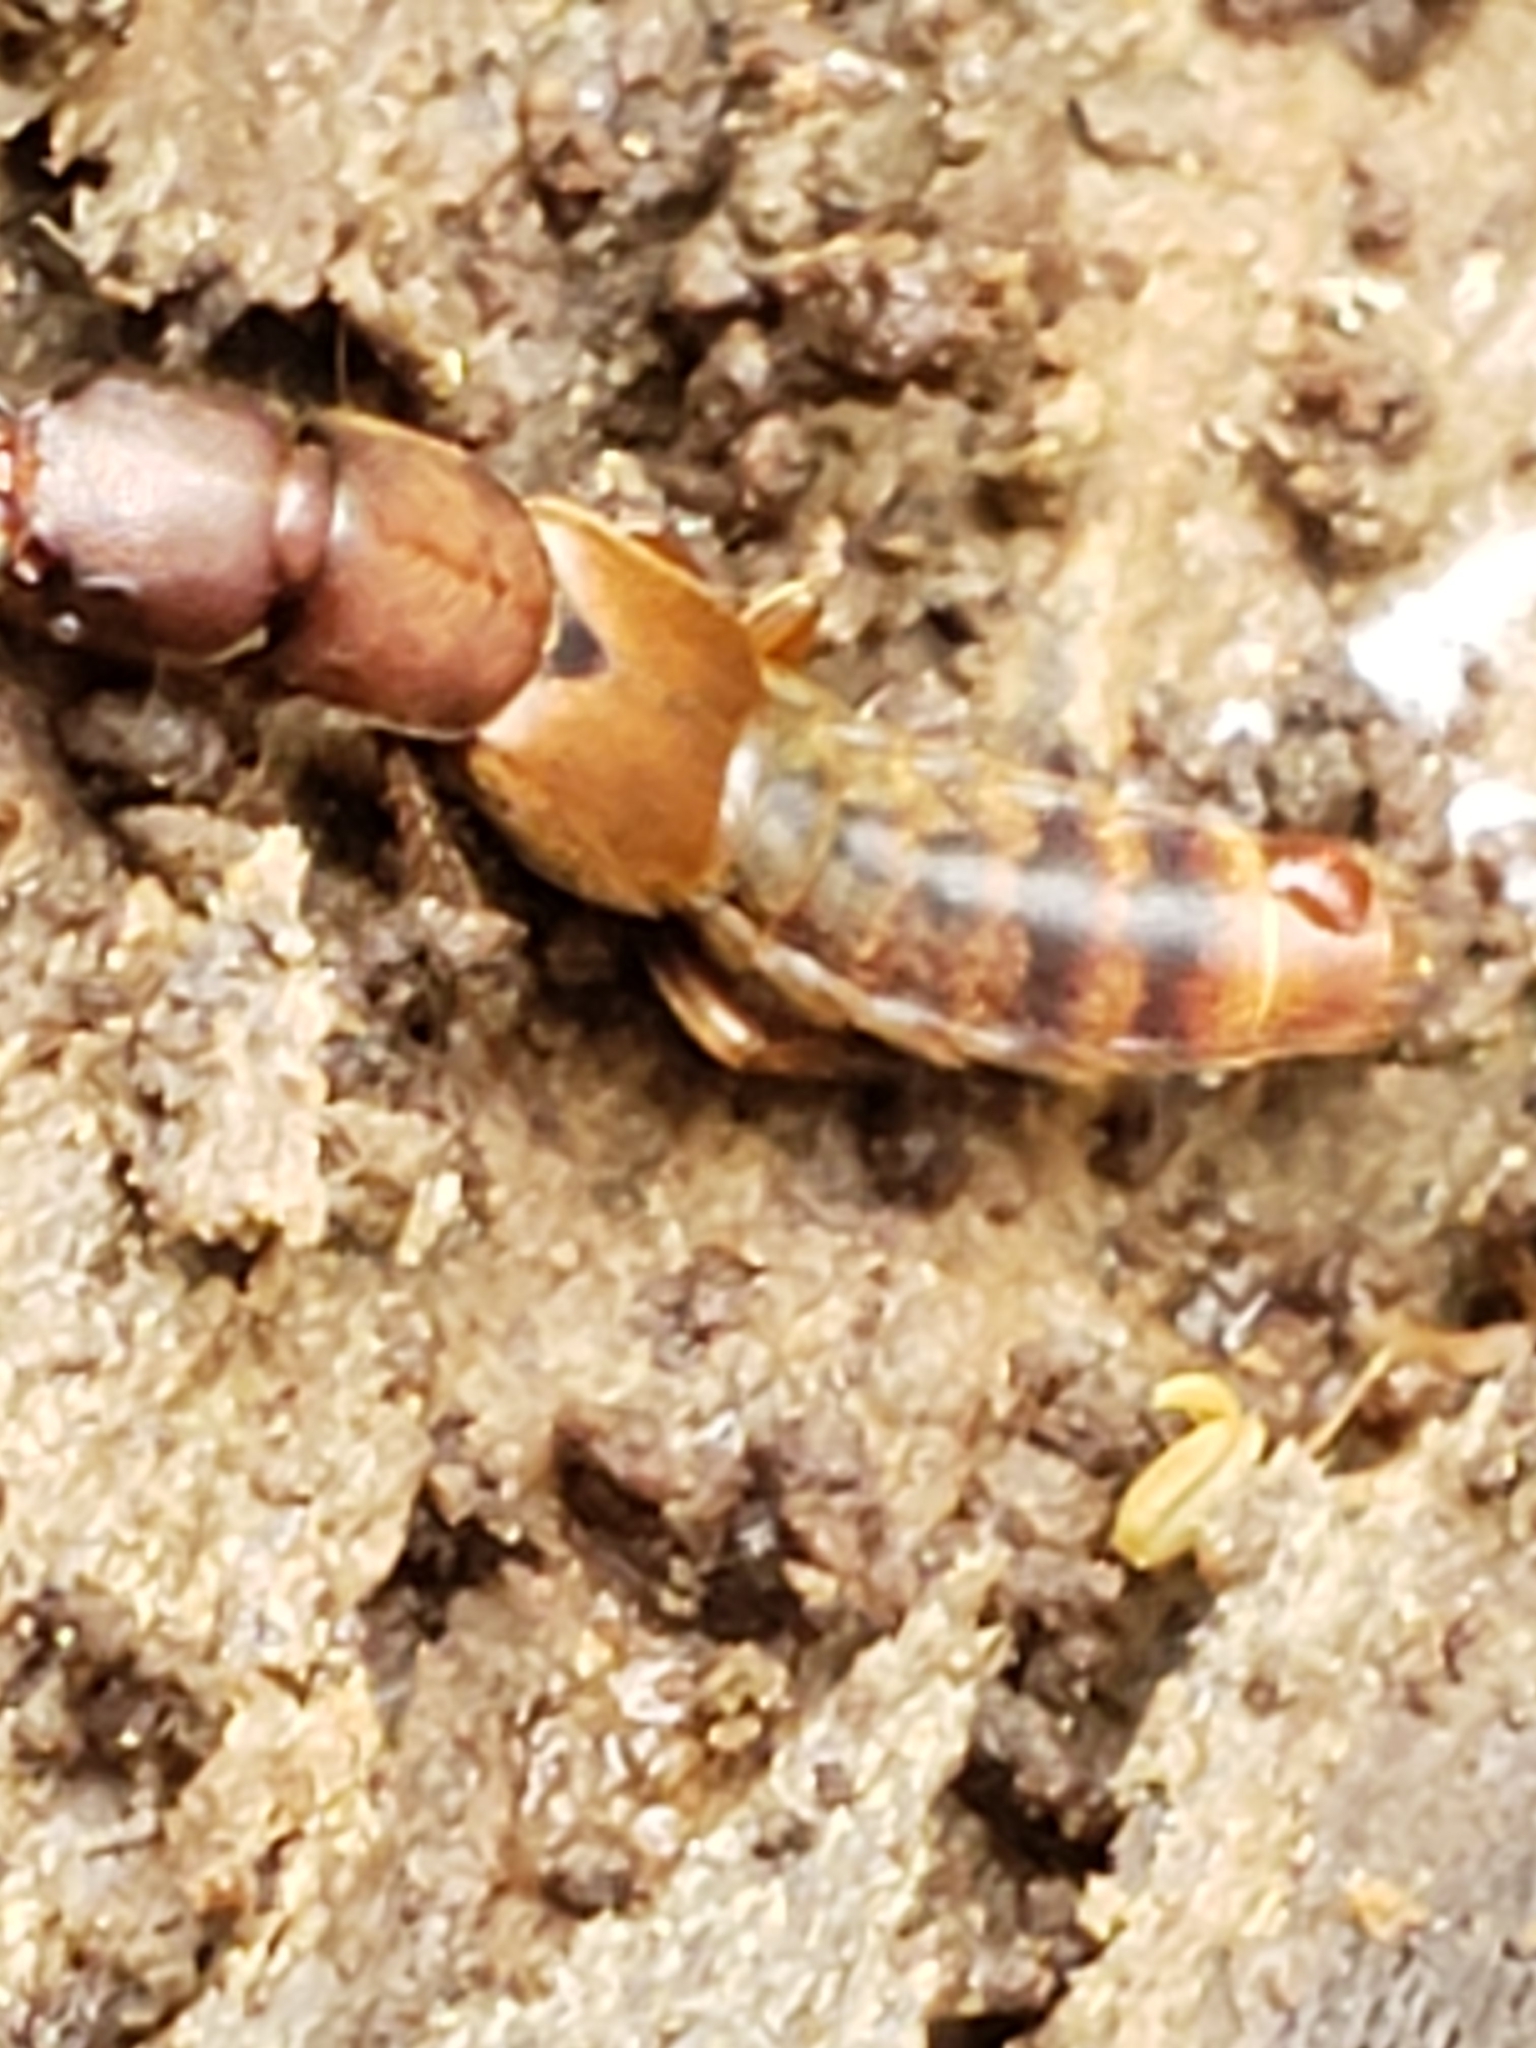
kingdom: Animalia
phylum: Arthropoda
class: Insecta
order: Coleoptera
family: Staphylinidae
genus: Platydracus
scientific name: Platydracus cinnamopterus
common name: Cinnamon rove beetle
